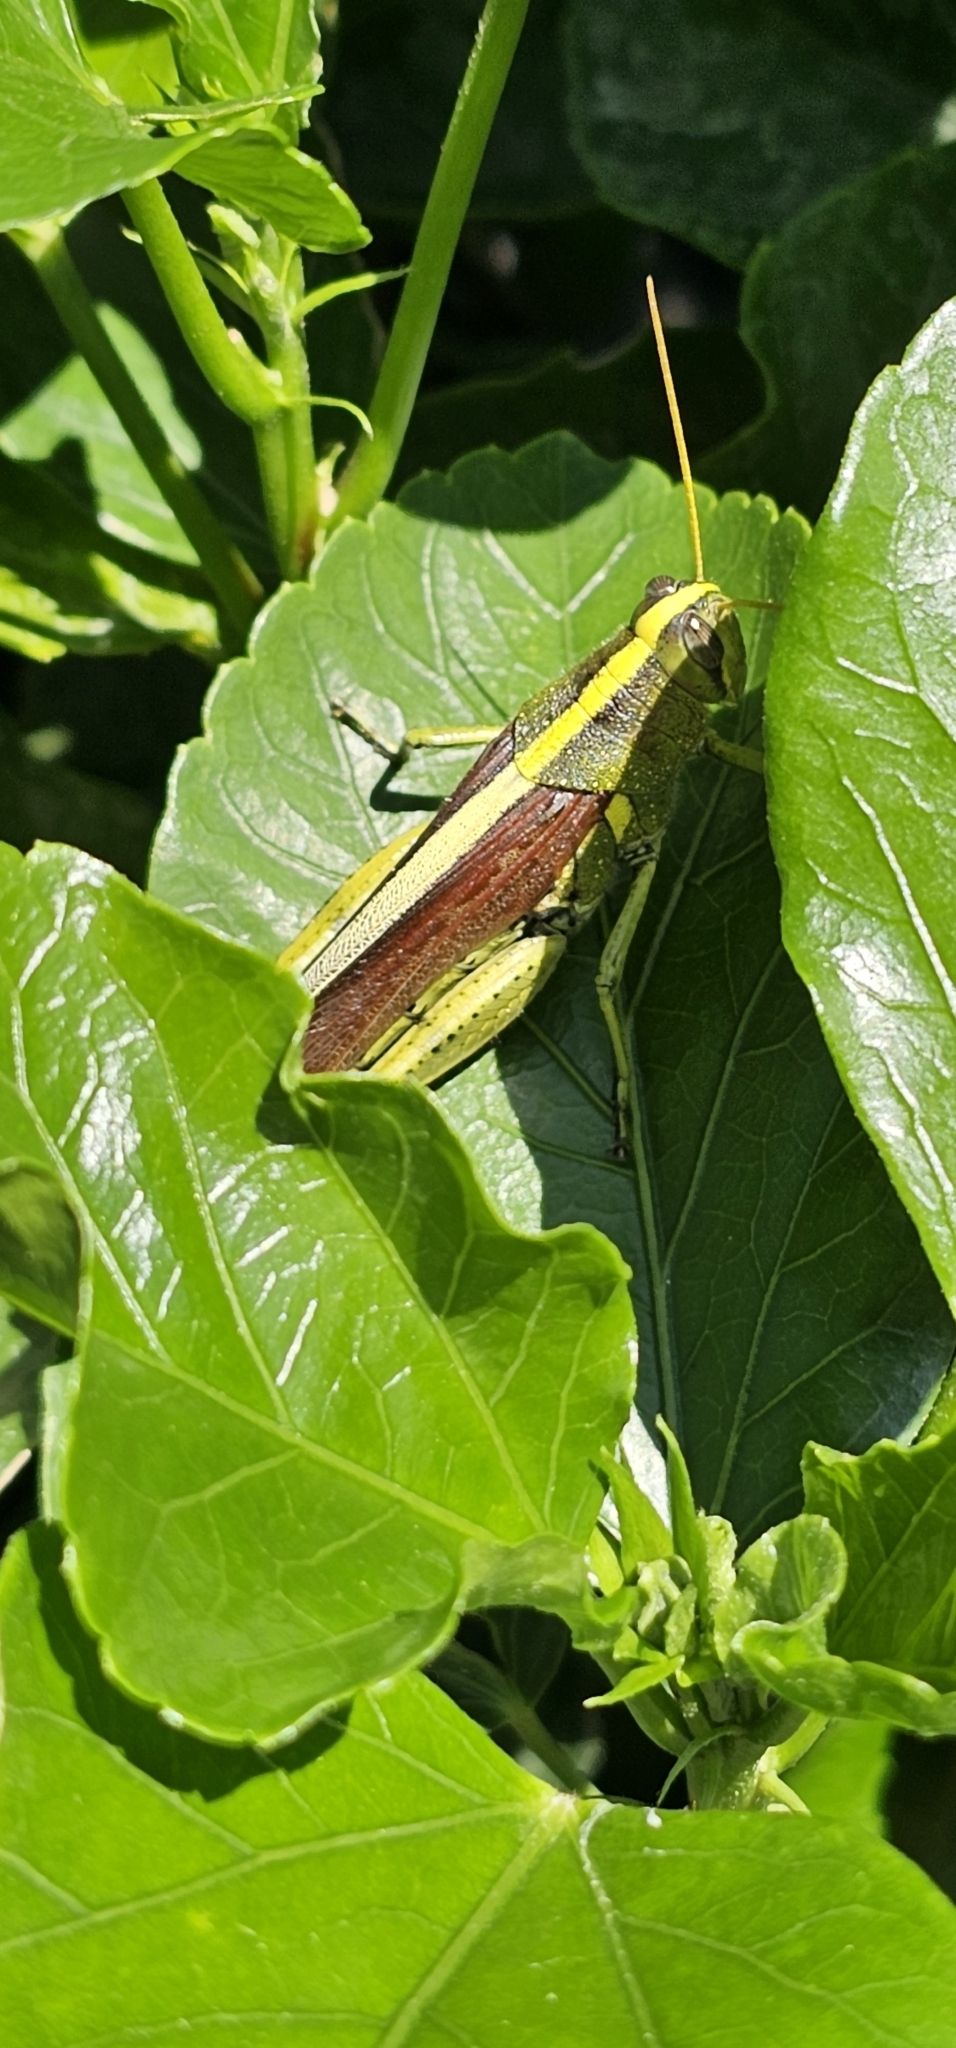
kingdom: Animalia
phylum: Arthropoda
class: Insecta
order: Orthoptera
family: Acrididae
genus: Schistocerca
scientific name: Schistocerca obscura
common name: Obscure bird grasshopper
